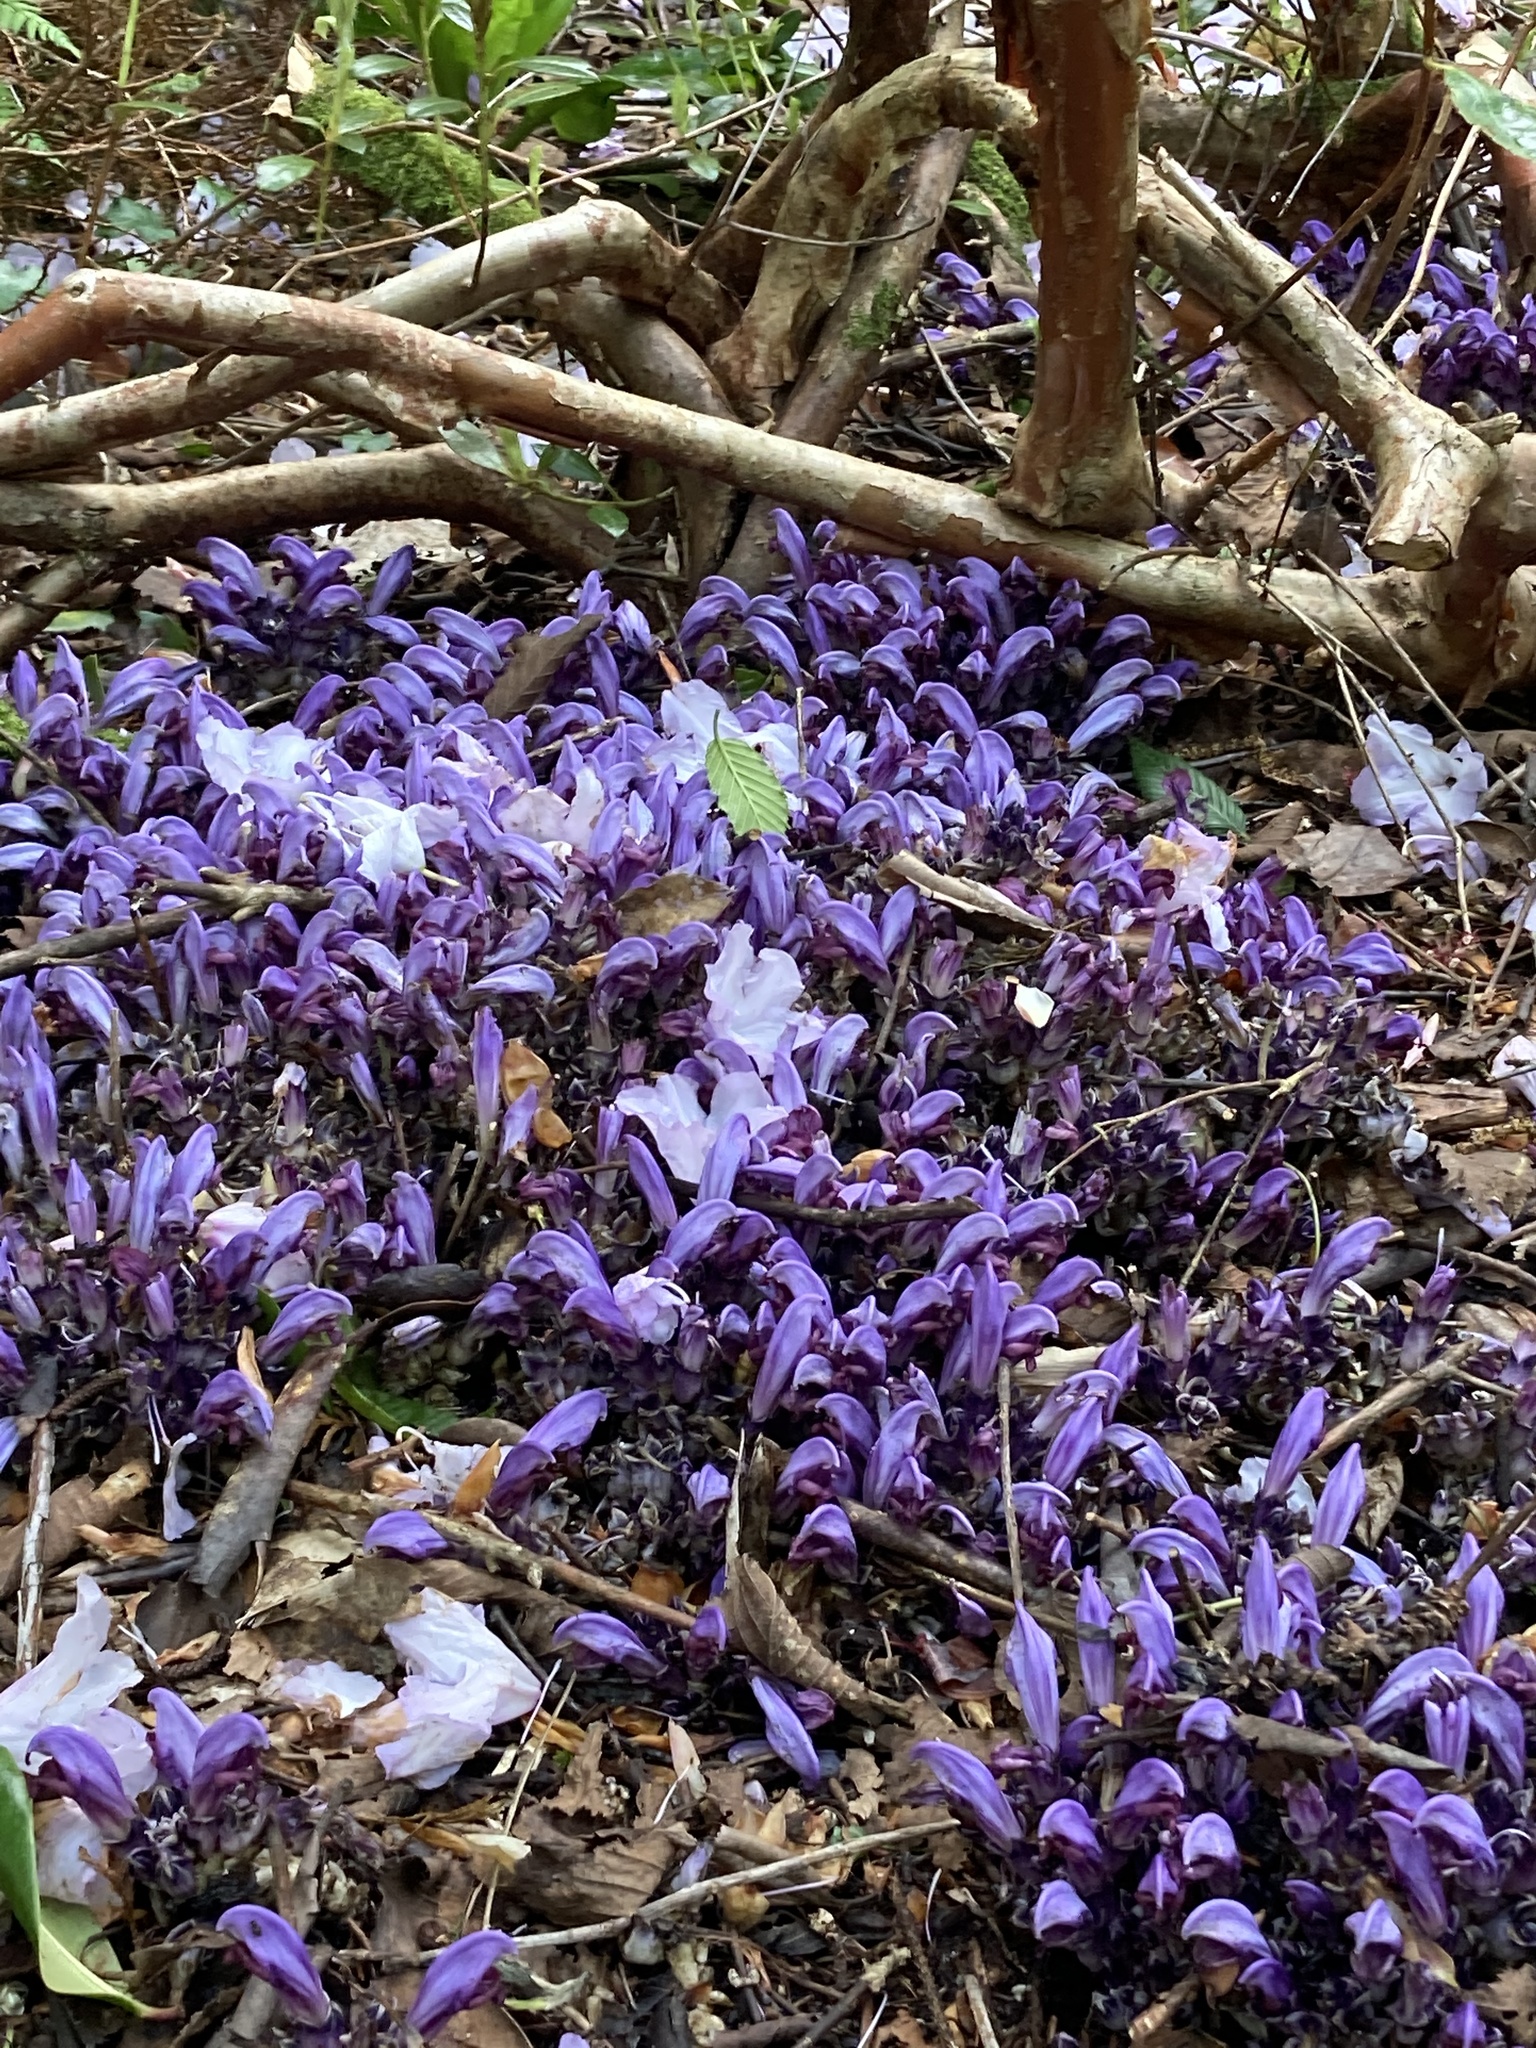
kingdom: Plantae
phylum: Tracheophyta
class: Magnoliopsida
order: Lamiales
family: Orobanchaceae
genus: Lathraea
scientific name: Lathraea clandestina
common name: Purple toothwort
